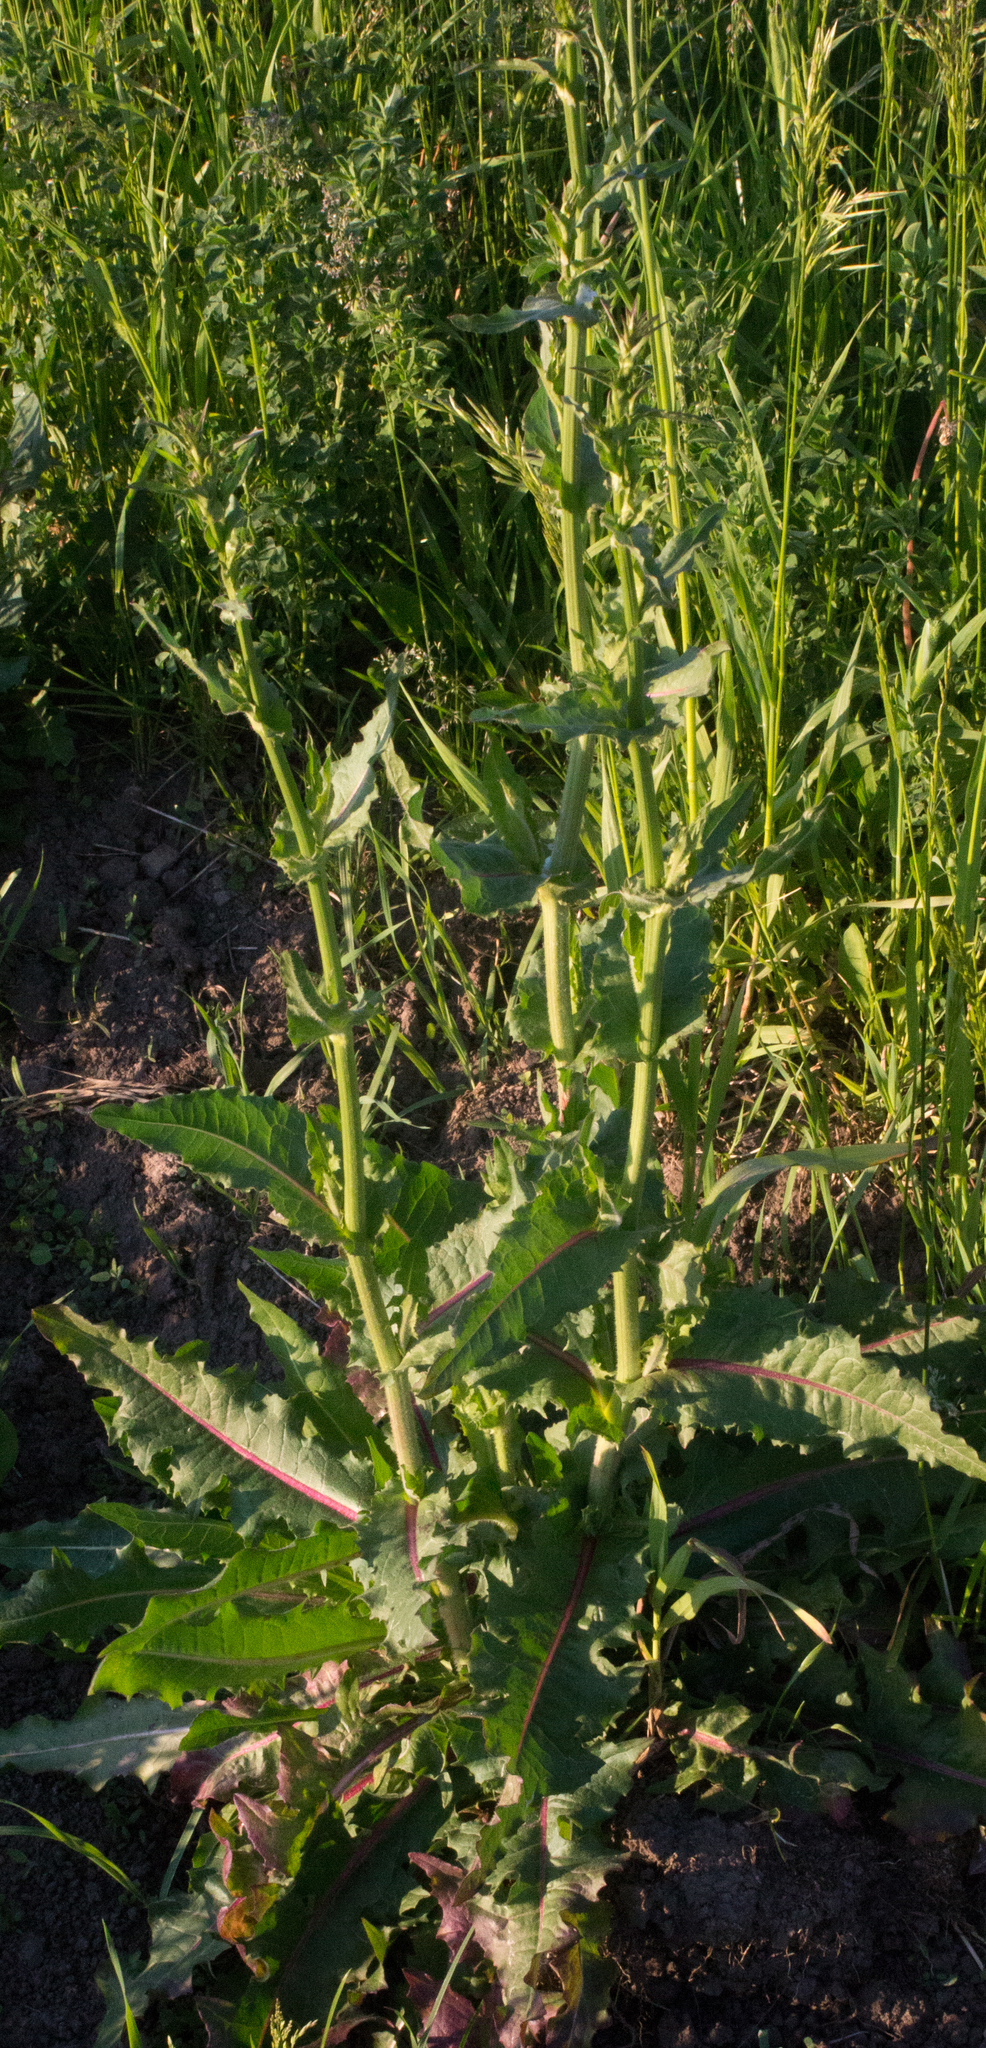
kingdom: Plantae
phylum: Tracheophyta
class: Magnoliopsida
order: Asterales
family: Asteraceae
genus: Cichorium
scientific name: Cichorium intybus
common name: Chicory
